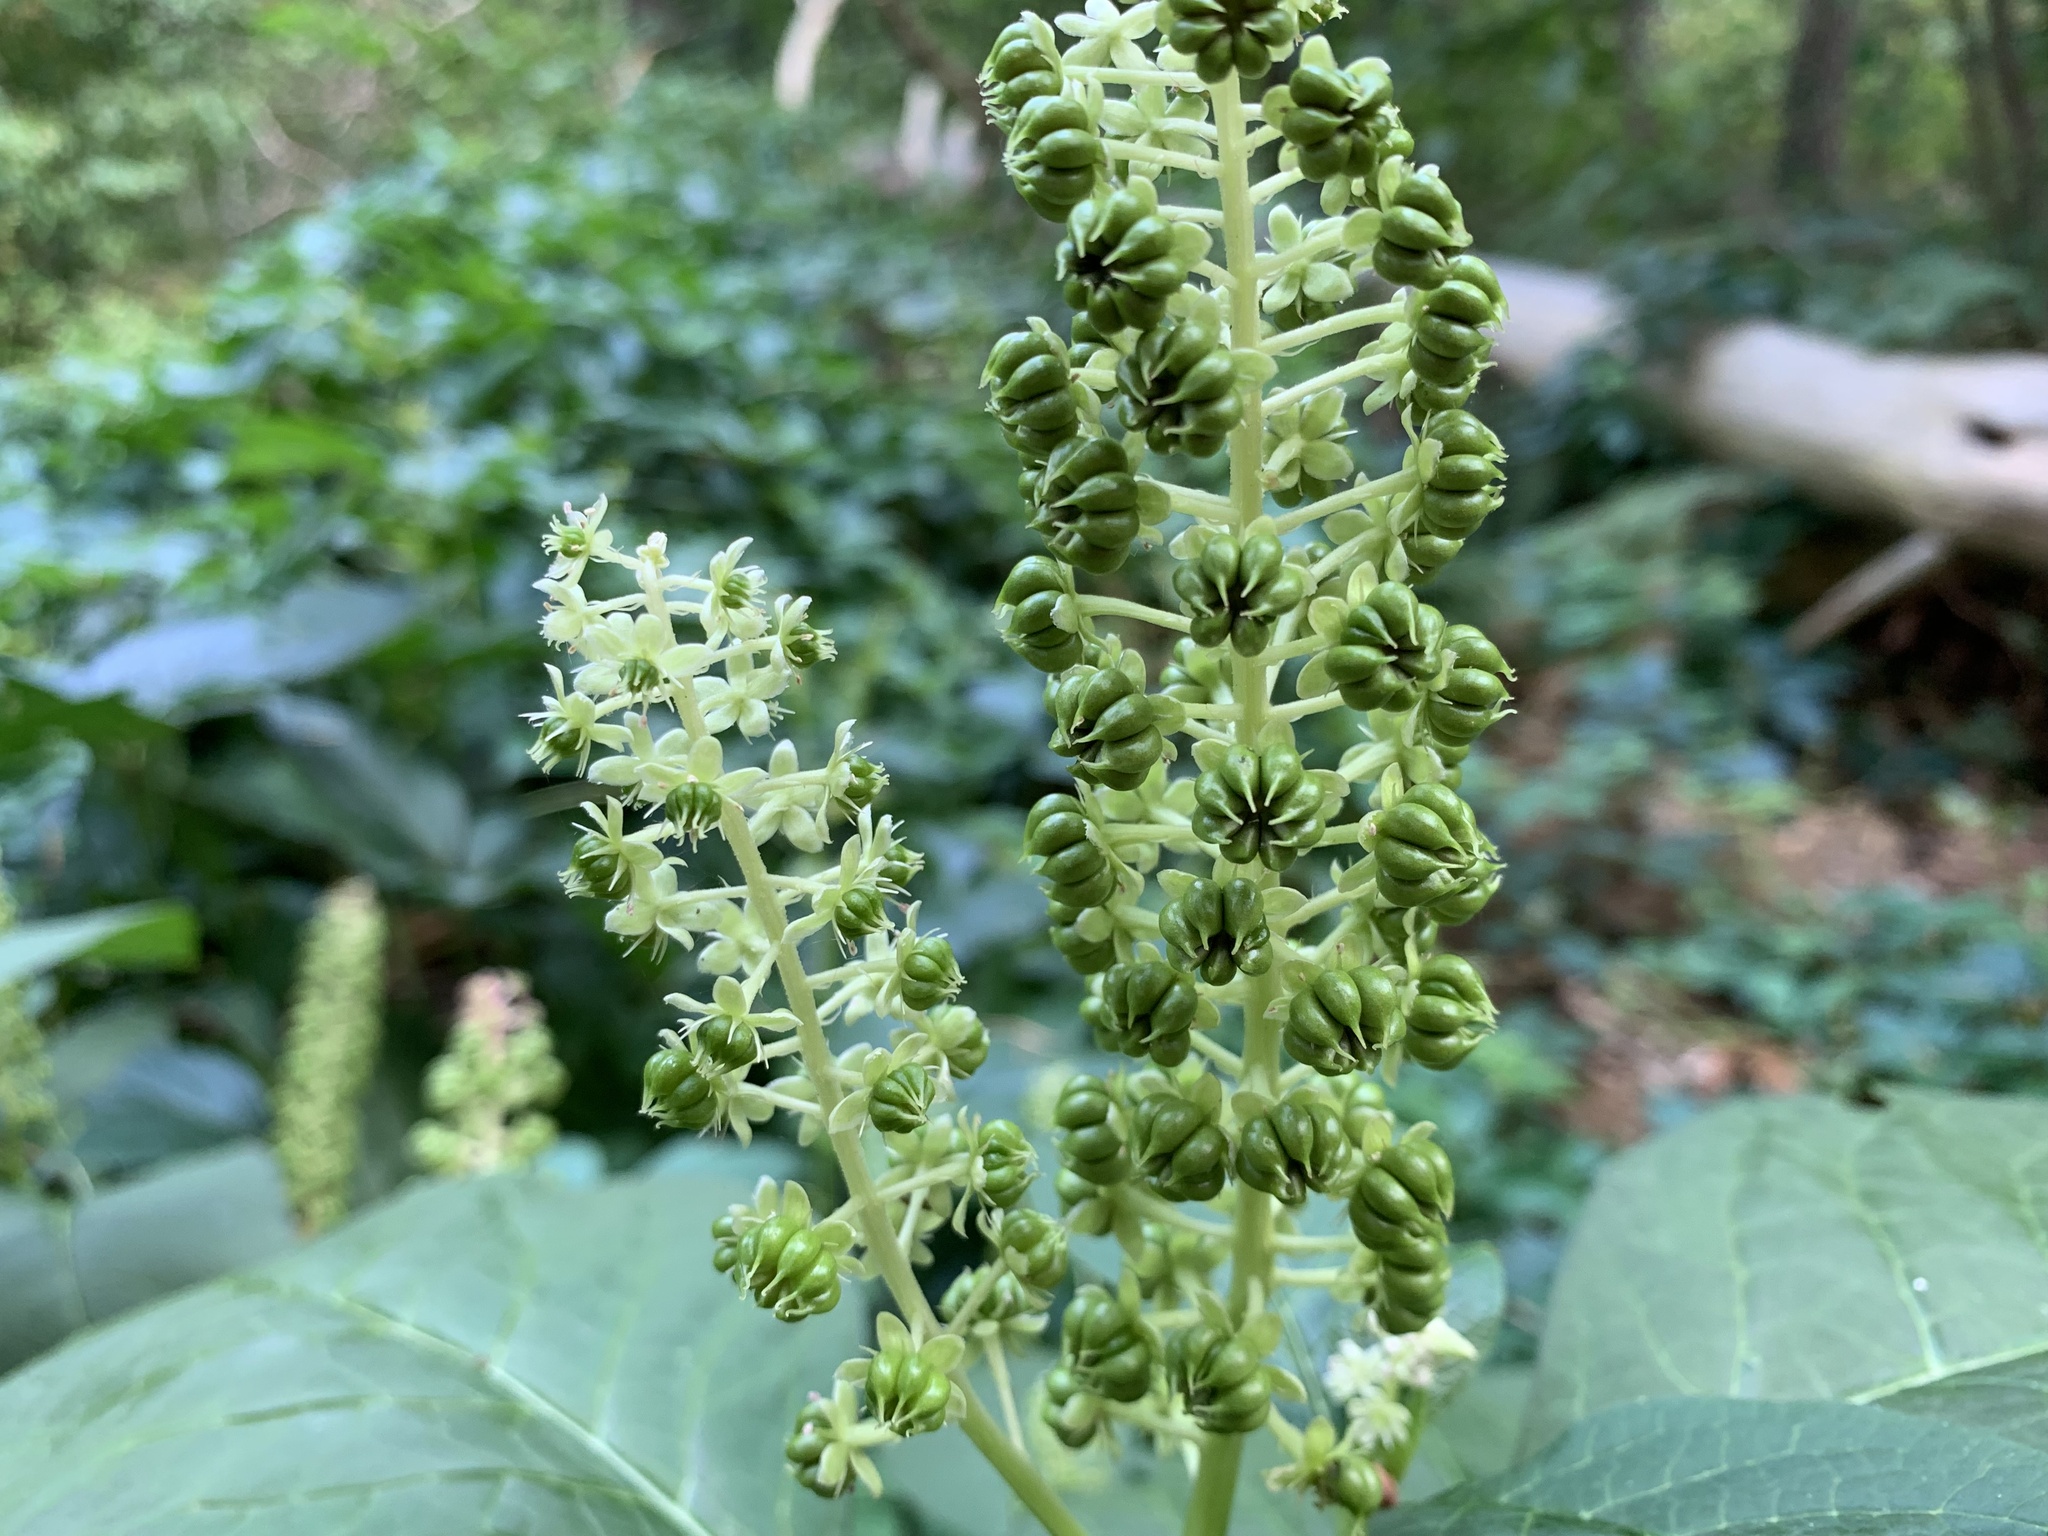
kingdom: Plantae
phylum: Tracheophyta
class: Magnoliopsida
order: Caryophyllales
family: Phytolaccaceae
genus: Phytolacca
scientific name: Phytolacca acinosa
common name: Indian pokeweed
